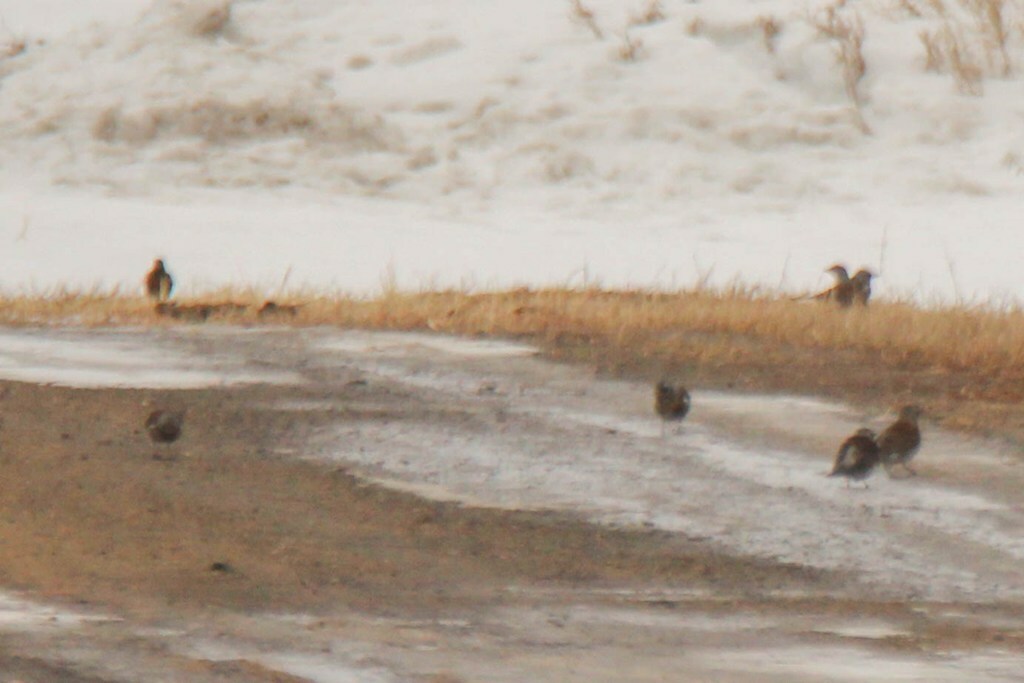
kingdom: Animalia
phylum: Chordata
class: Aves
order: Passeriformes
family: Turdidae
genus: Turdus
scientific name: Turdus pilaris
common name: Fieldfare
